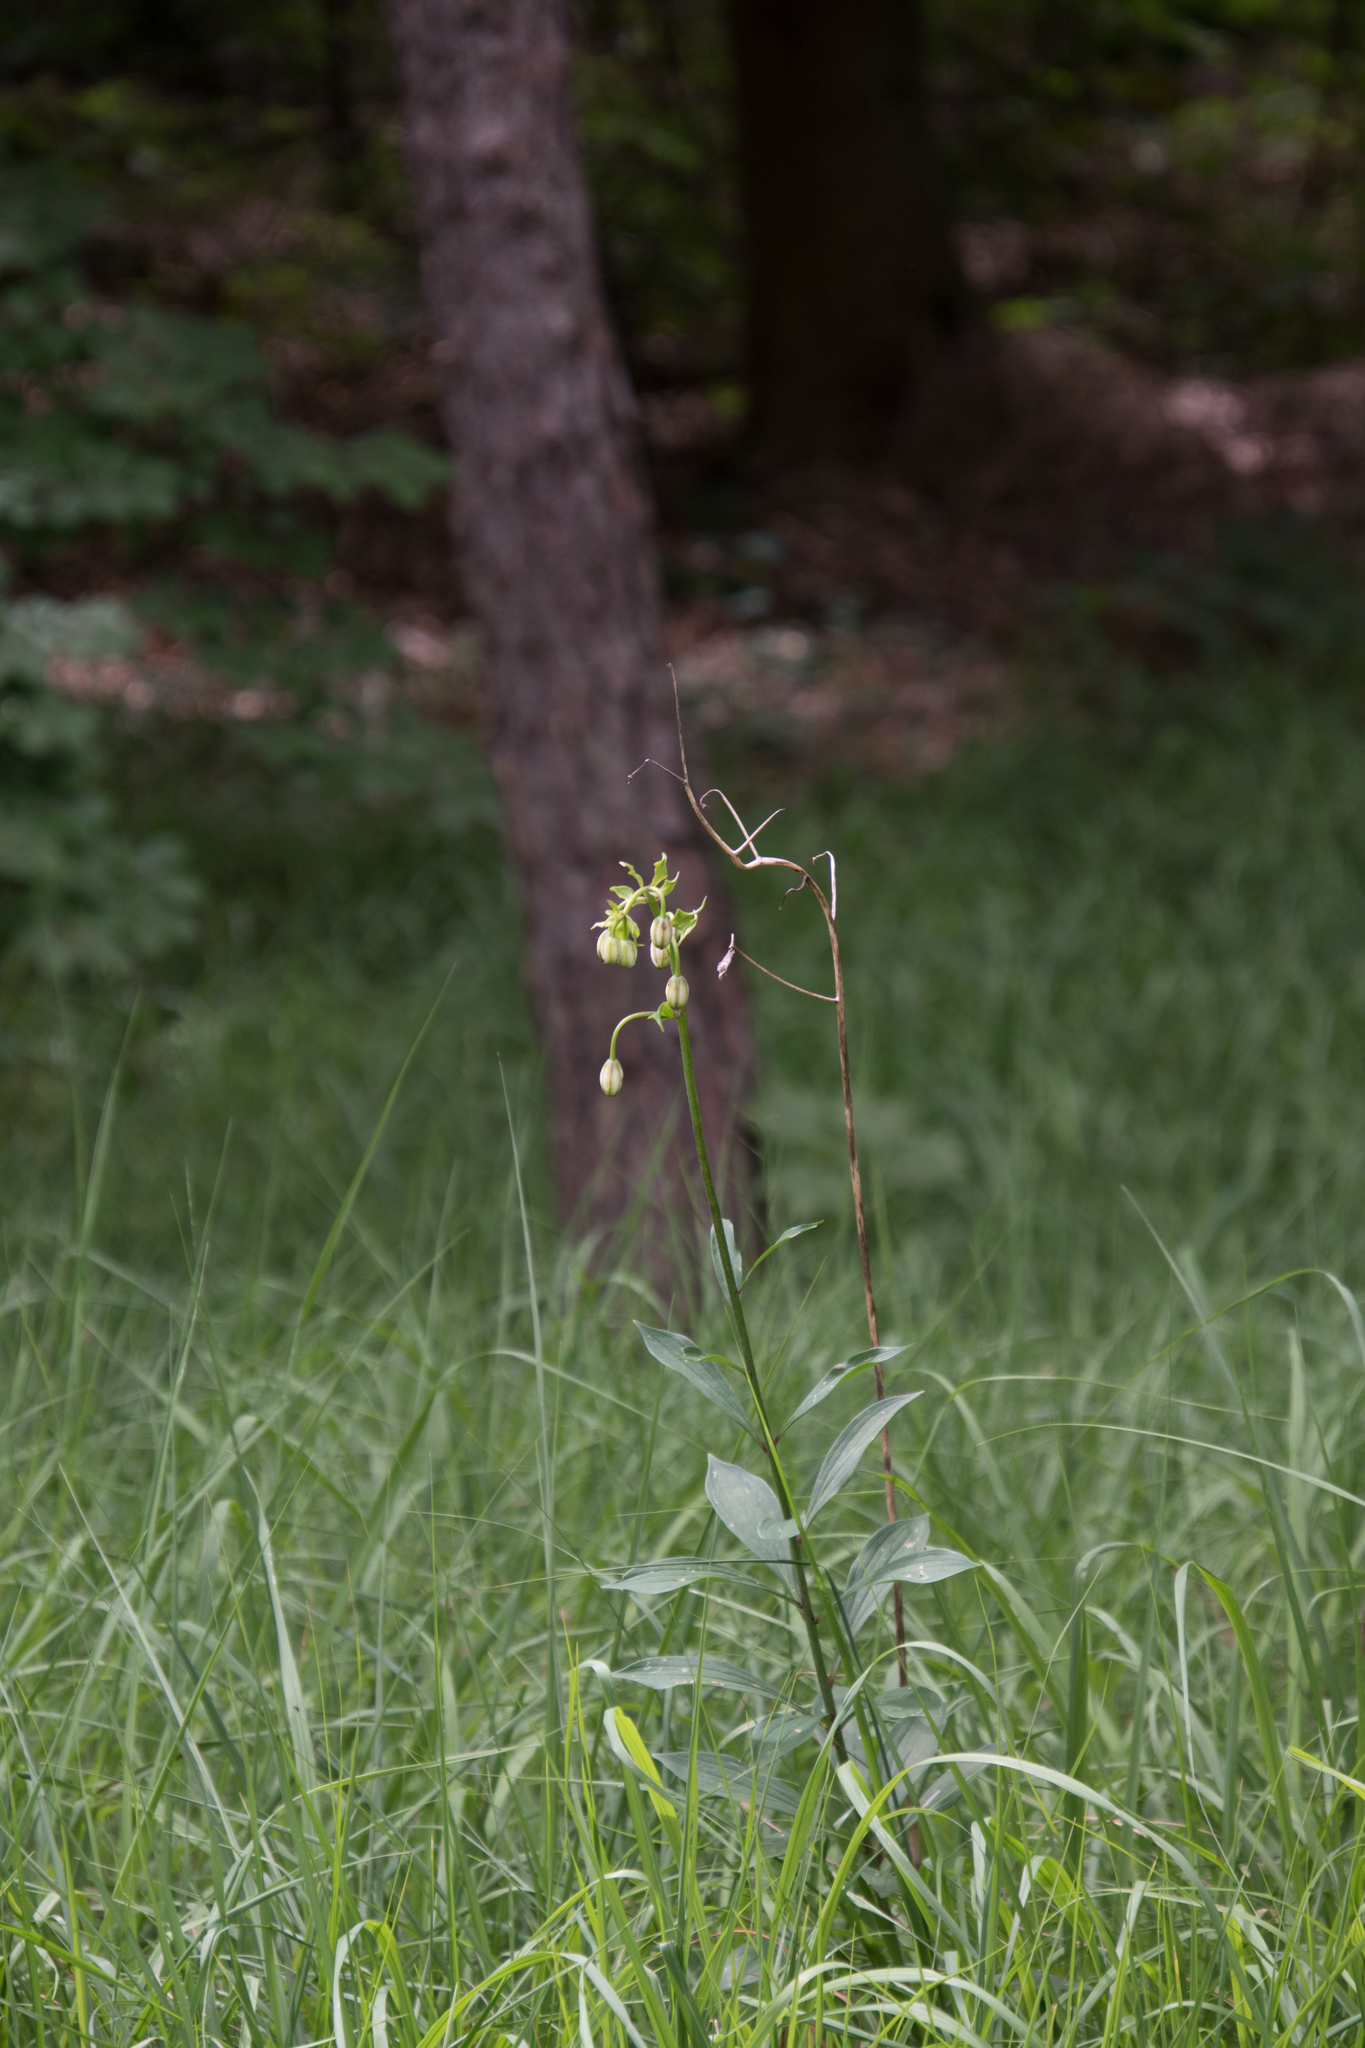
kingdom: Plantae
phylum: Tracheophyta
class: Liliopsida
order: Liliales
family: Liliaceae
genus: Lilium
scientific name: Lilium martagon
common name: Martagon lily
